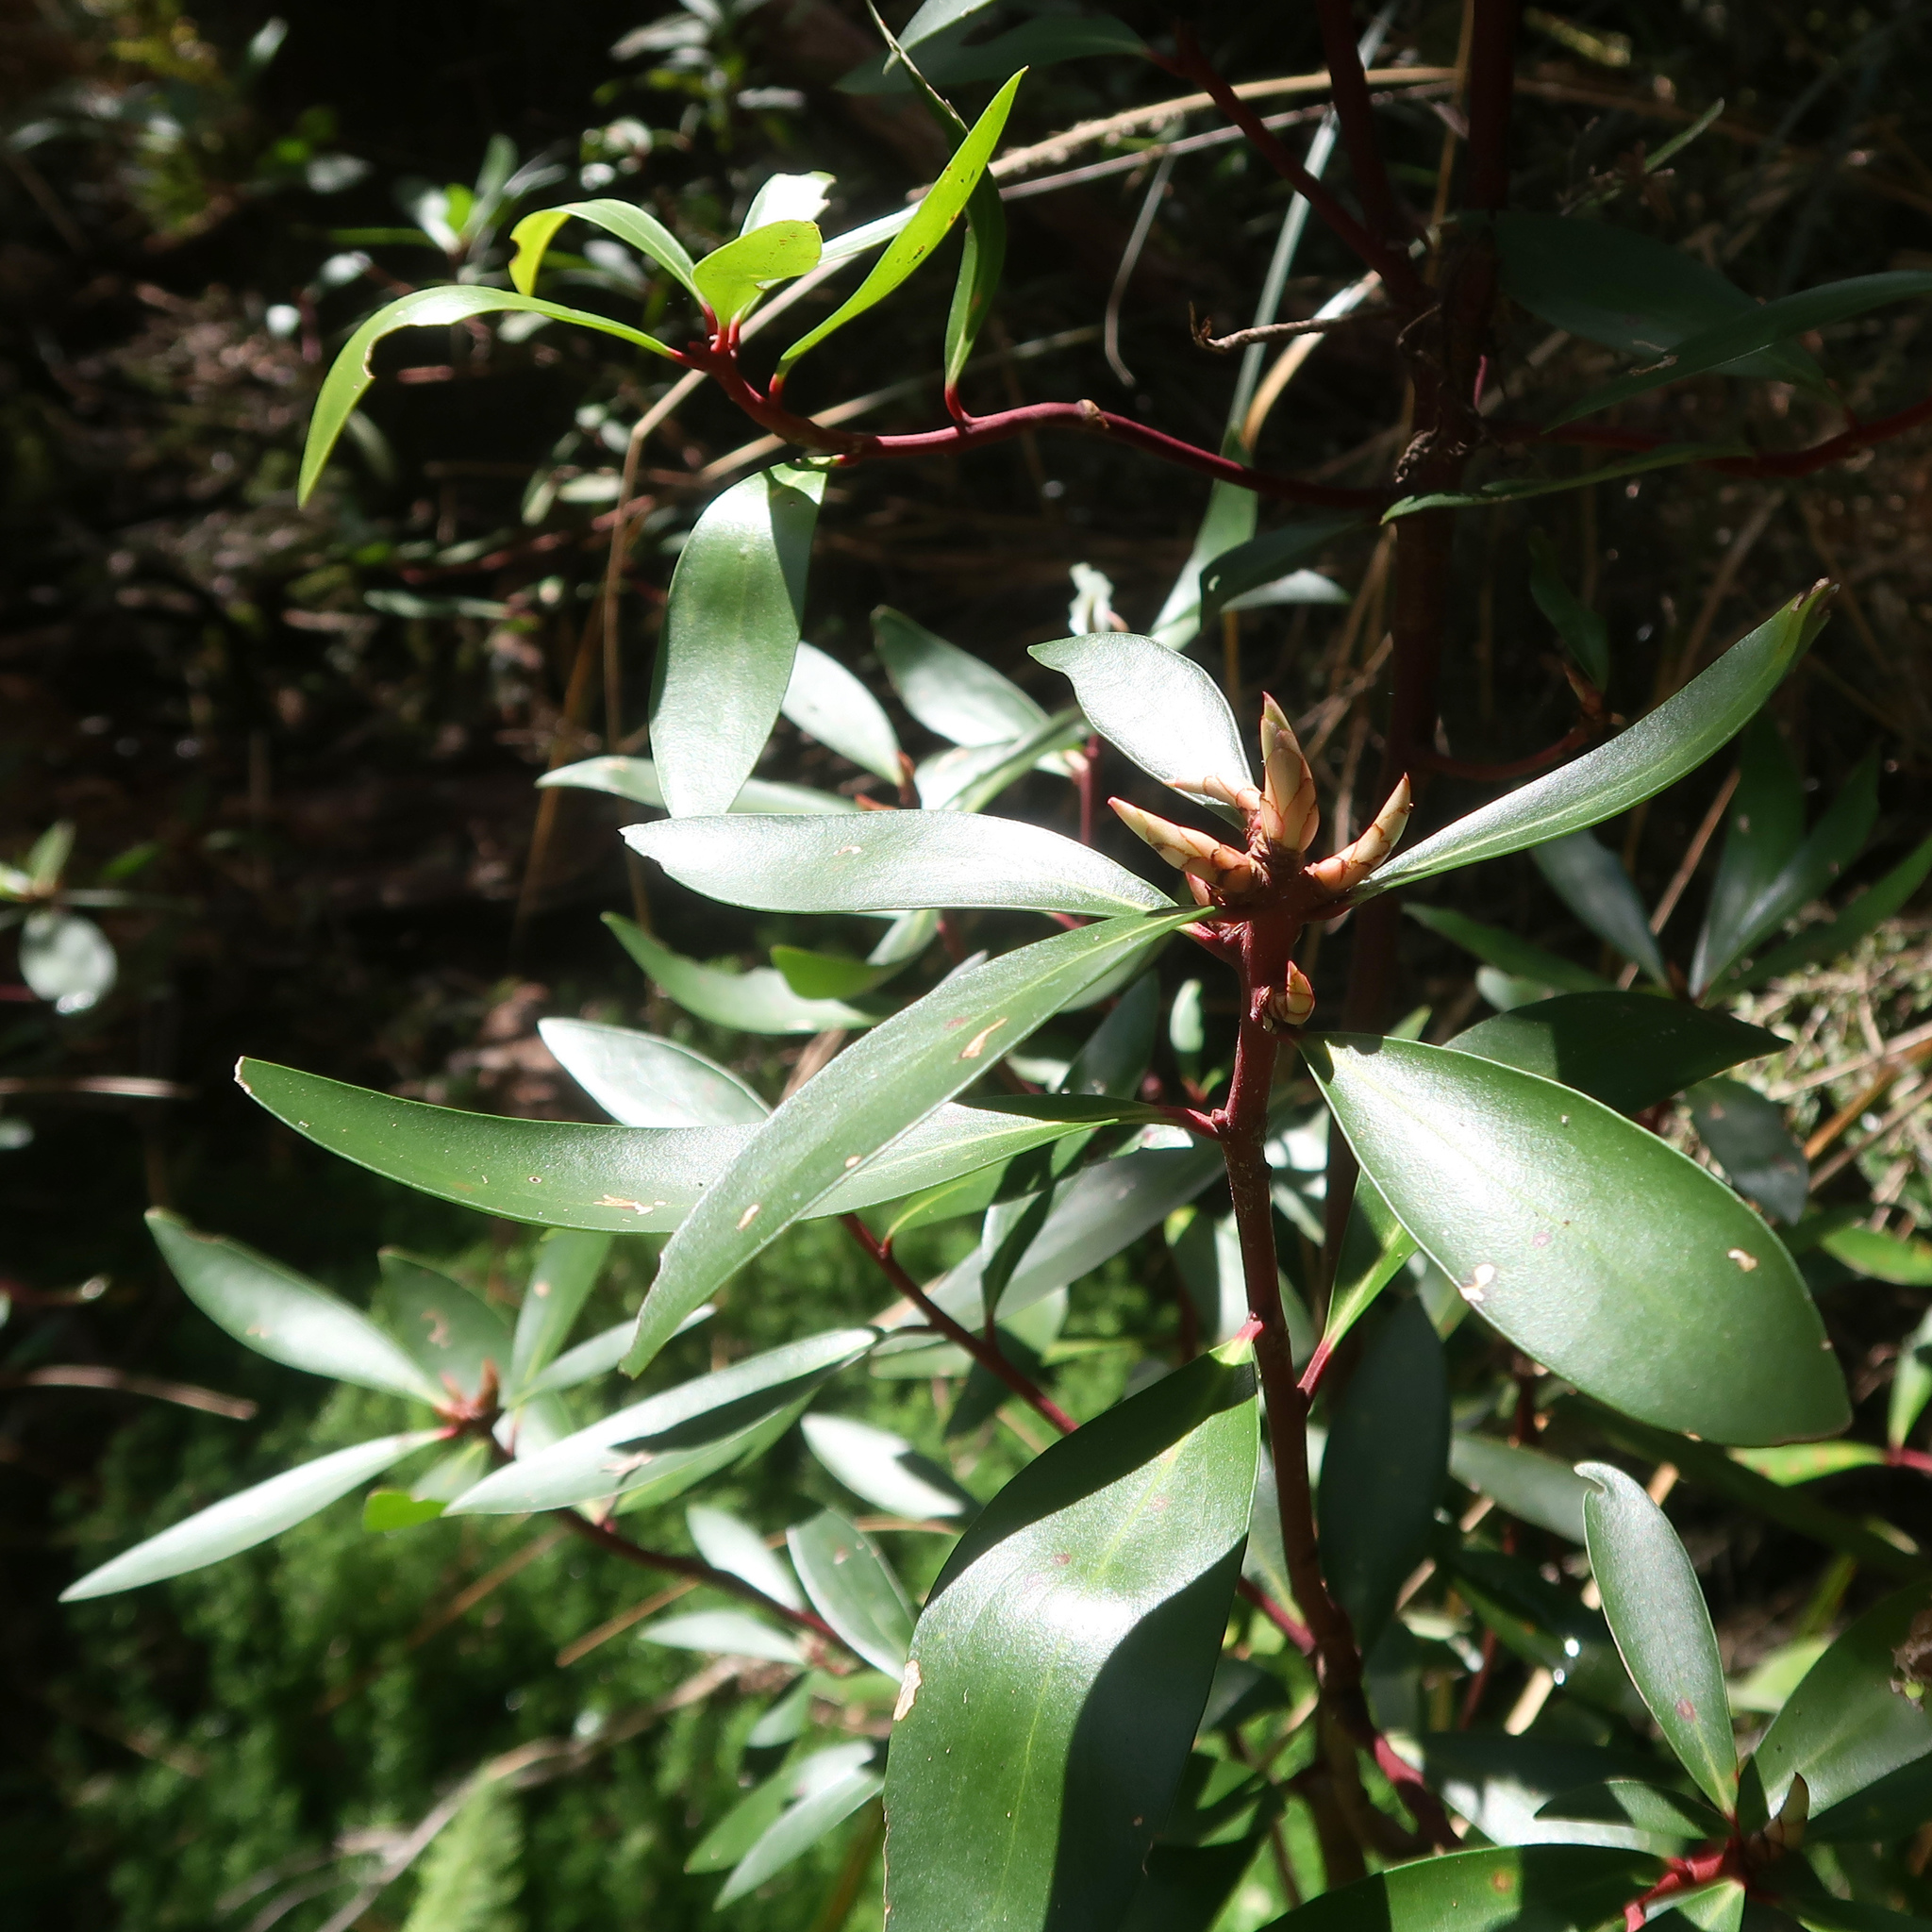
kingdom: Plantae
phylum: Tracheophyta
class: Magnoliopsida
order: Canellales
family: Winteraceae
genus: Drimys
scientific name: Drimys aromatica
